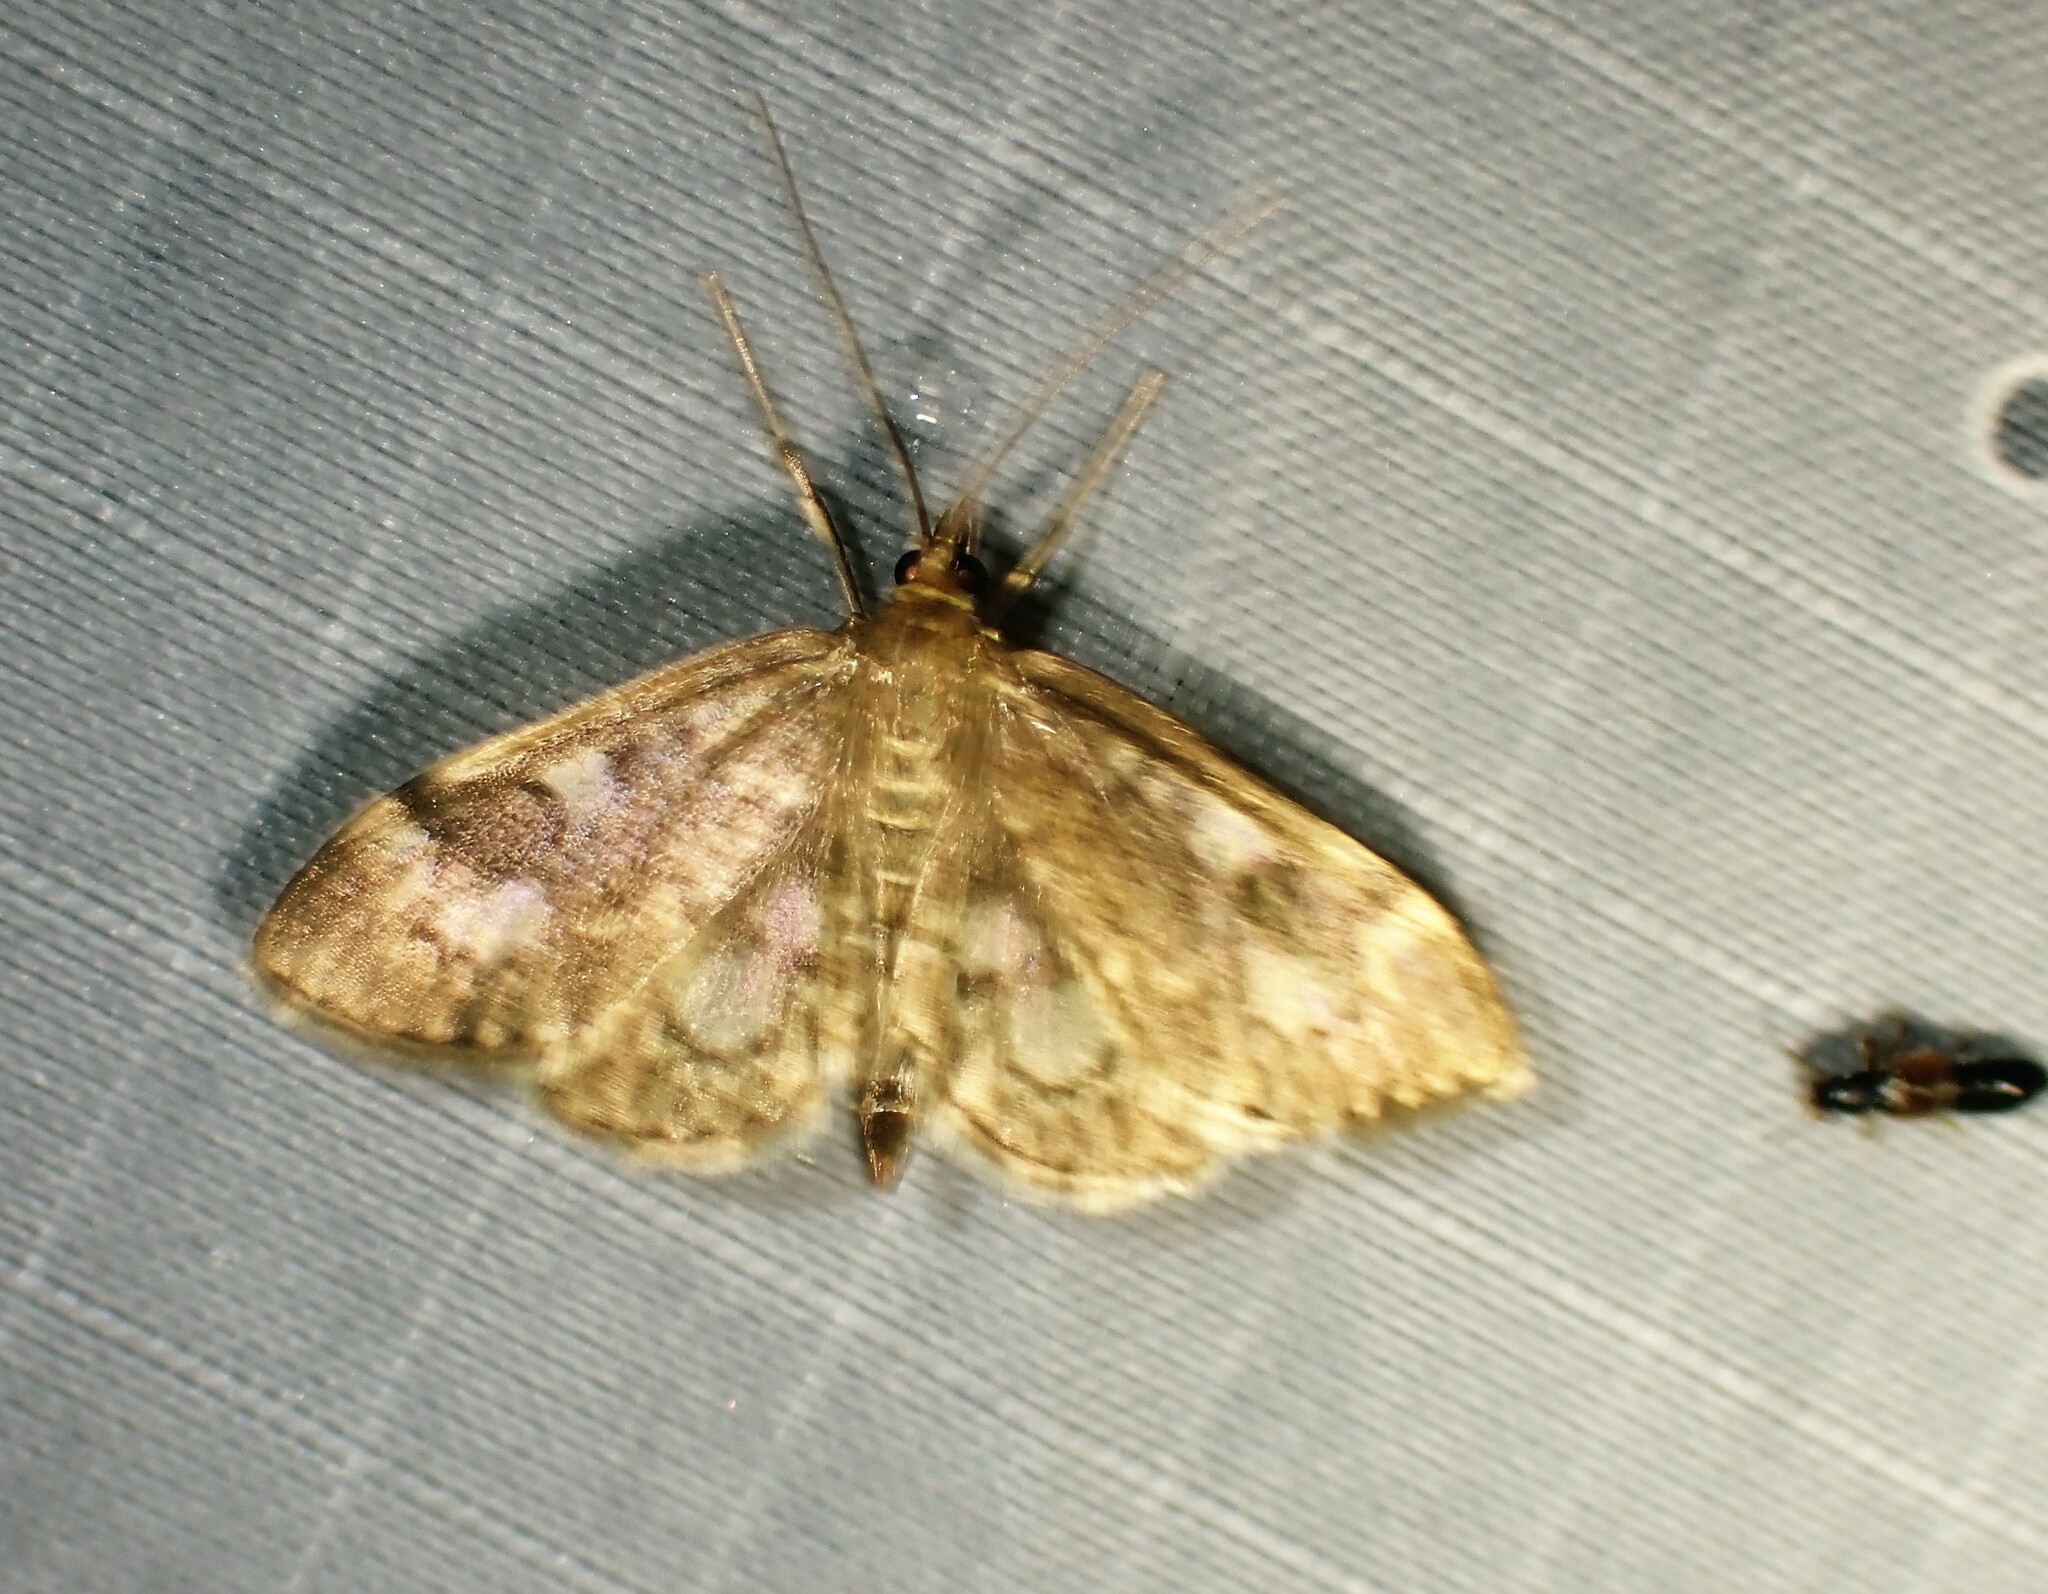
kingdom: Animalia
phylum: Arthropoda
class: Insecta
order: Lepidoptera
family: Crambidae
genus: Anania
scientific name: Anania
